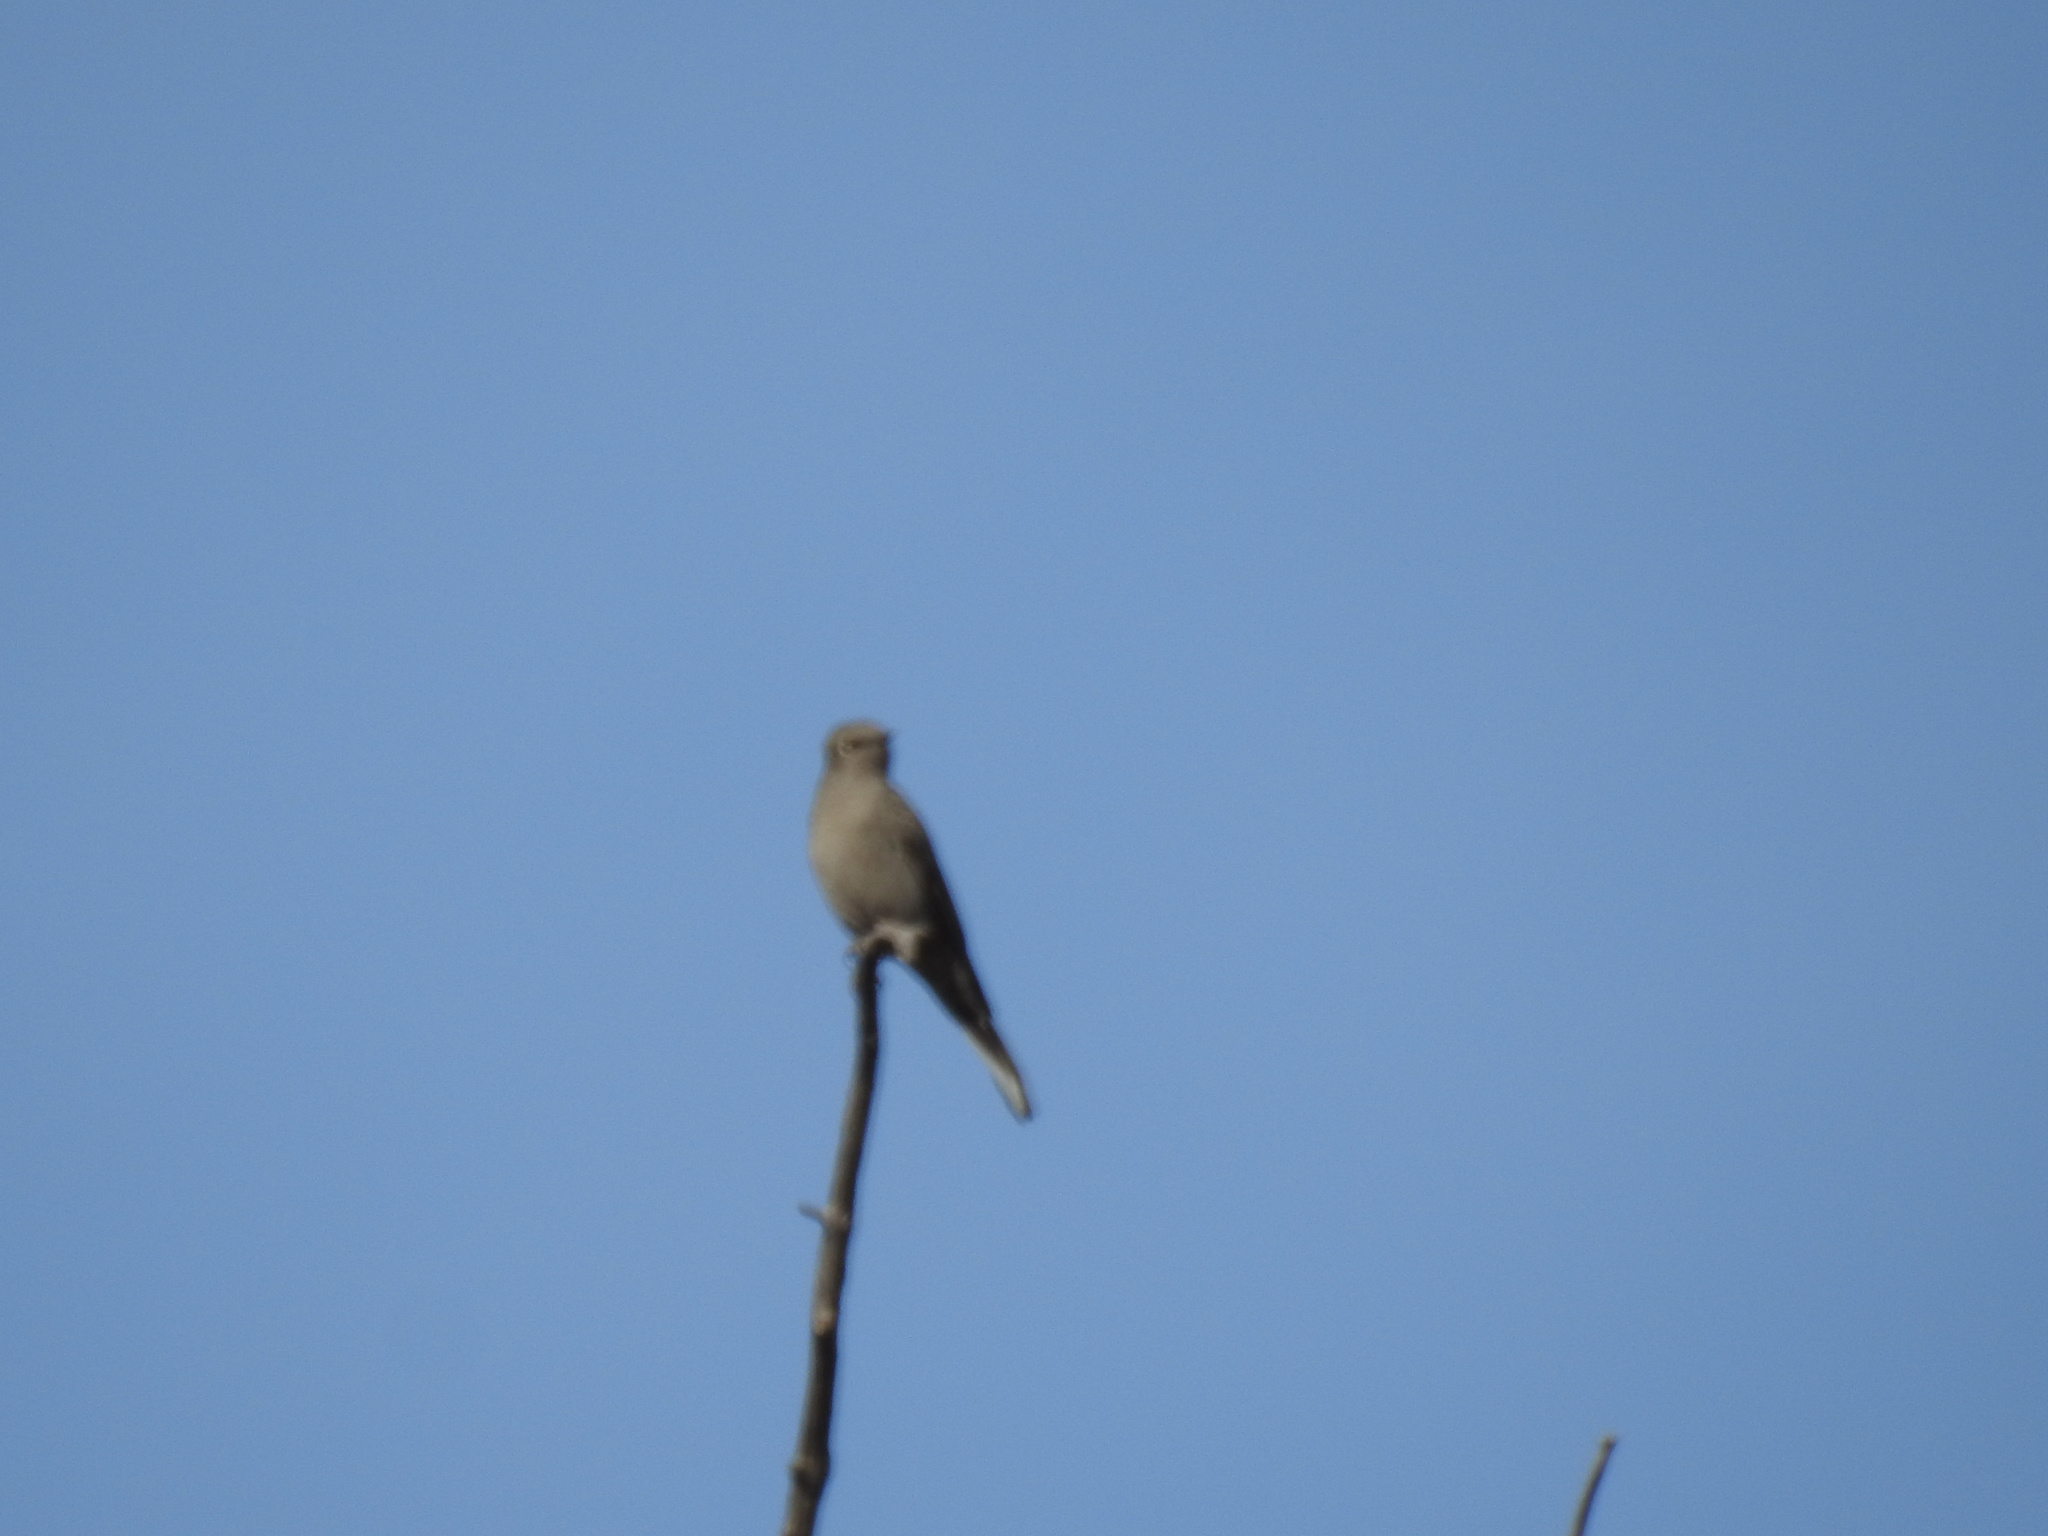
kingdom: Animalia
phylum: Chordata
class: Aves
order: Passeriformes
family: Turdidae
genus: Myadestes
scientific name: Myadestes townsendi
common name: Townsend's solitaire
